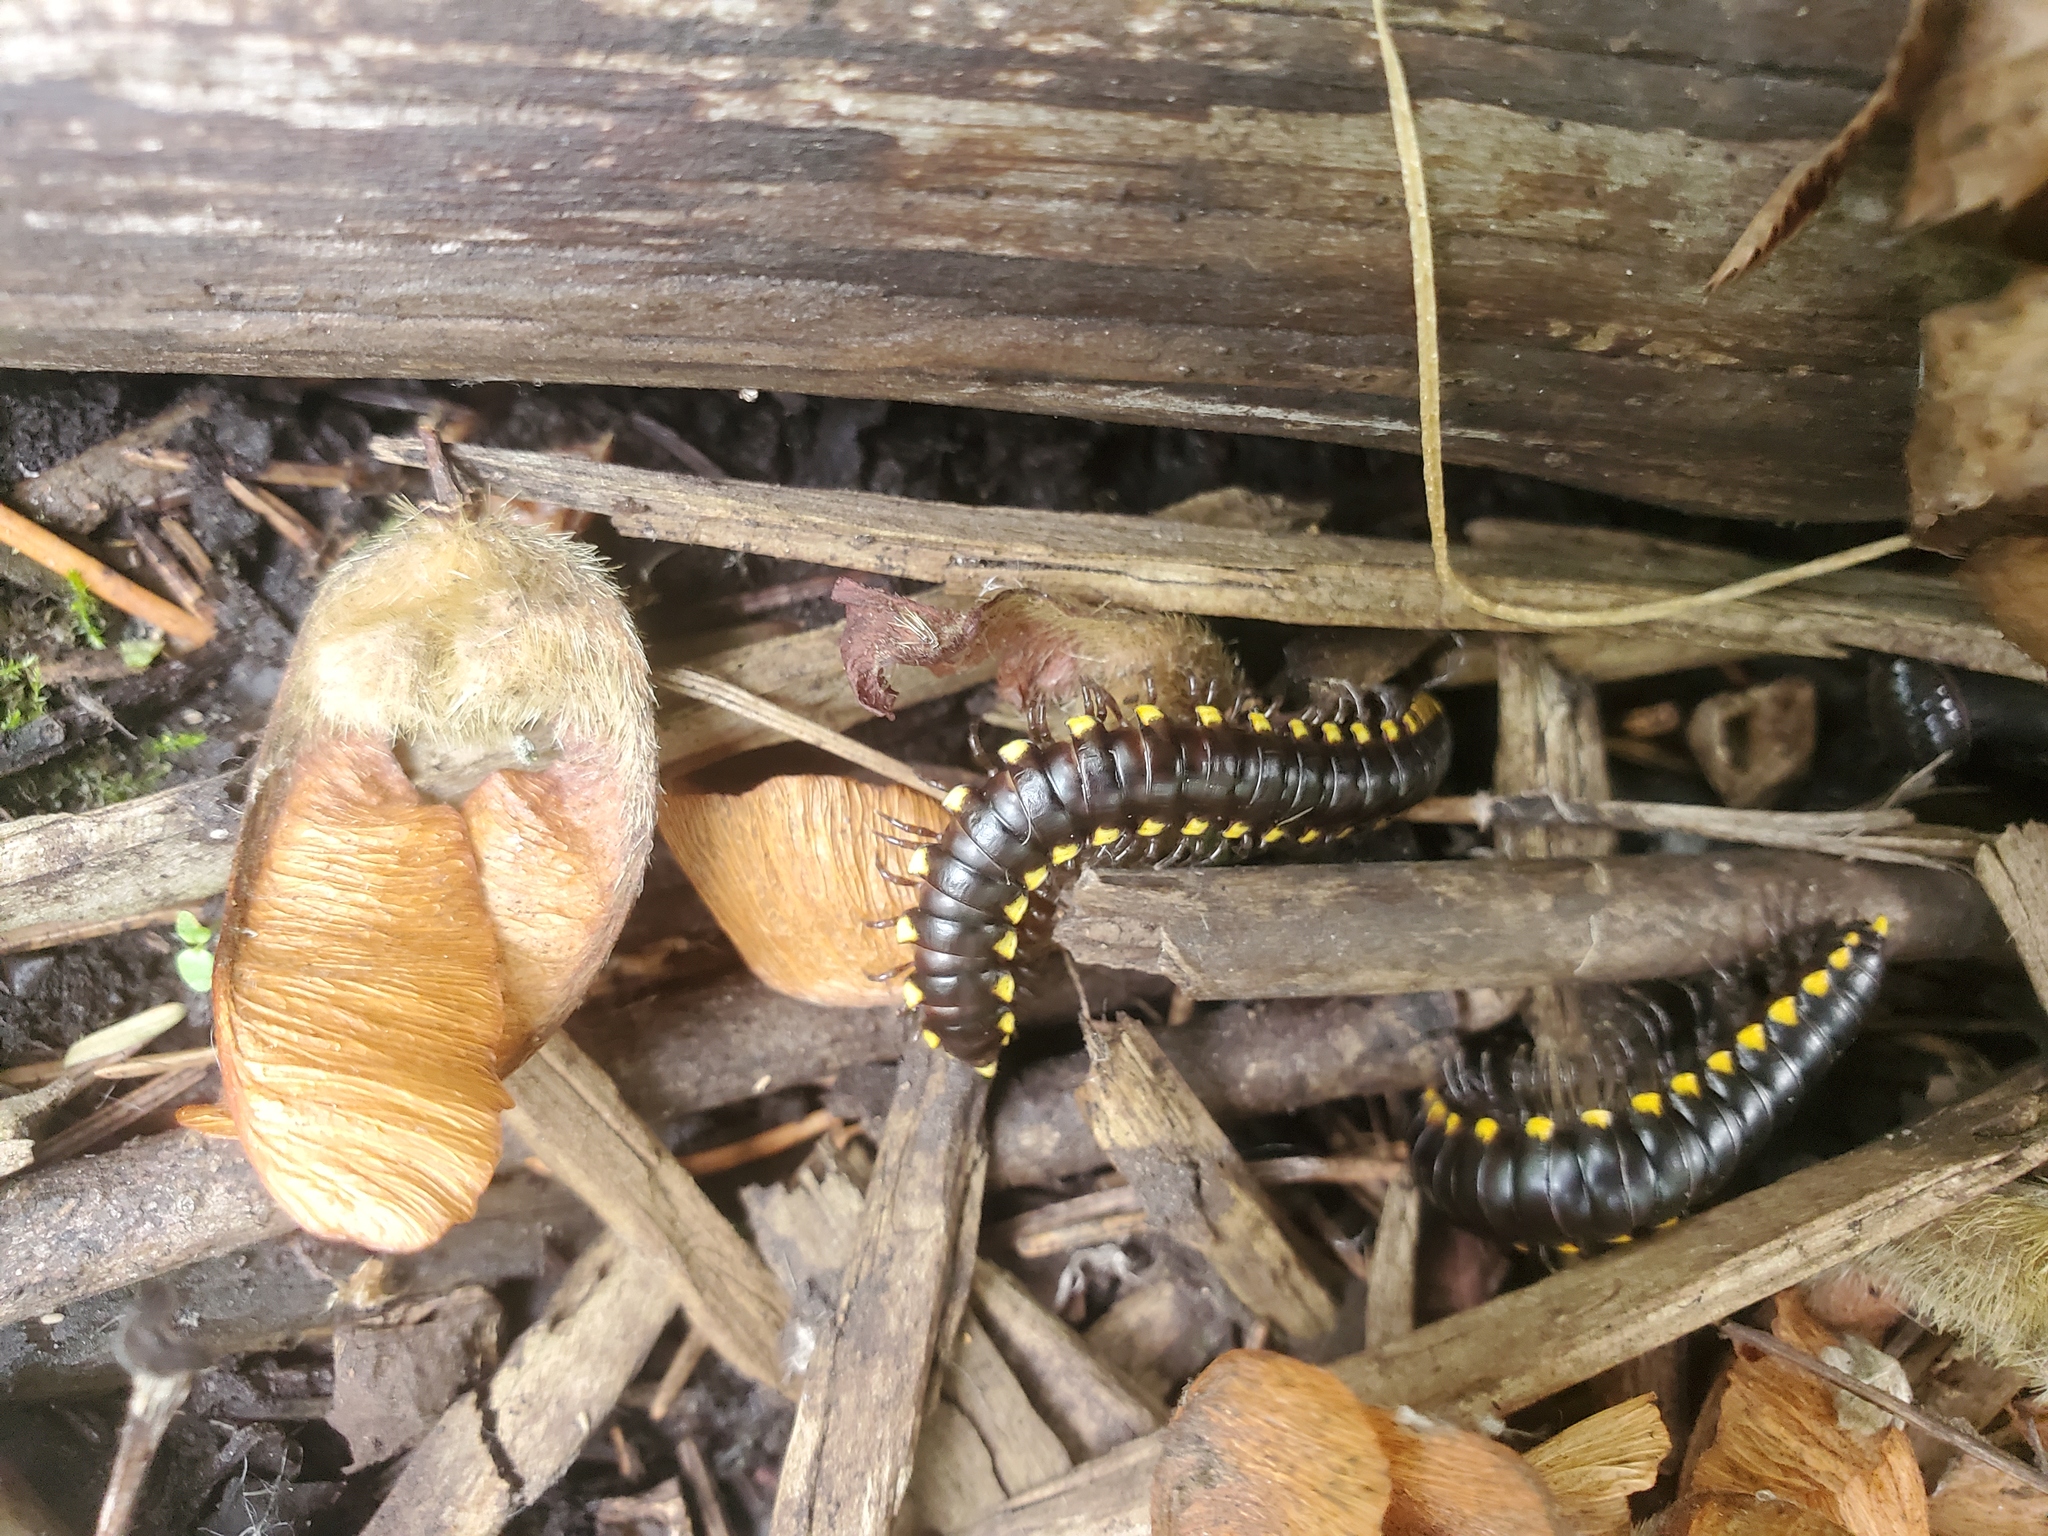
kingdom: Animalia
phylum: Arthropoda
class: Diplopoda
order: Polydesmida
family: Xystodesmidae
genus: Harpaphe
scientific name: Harpaphe haydeniana
